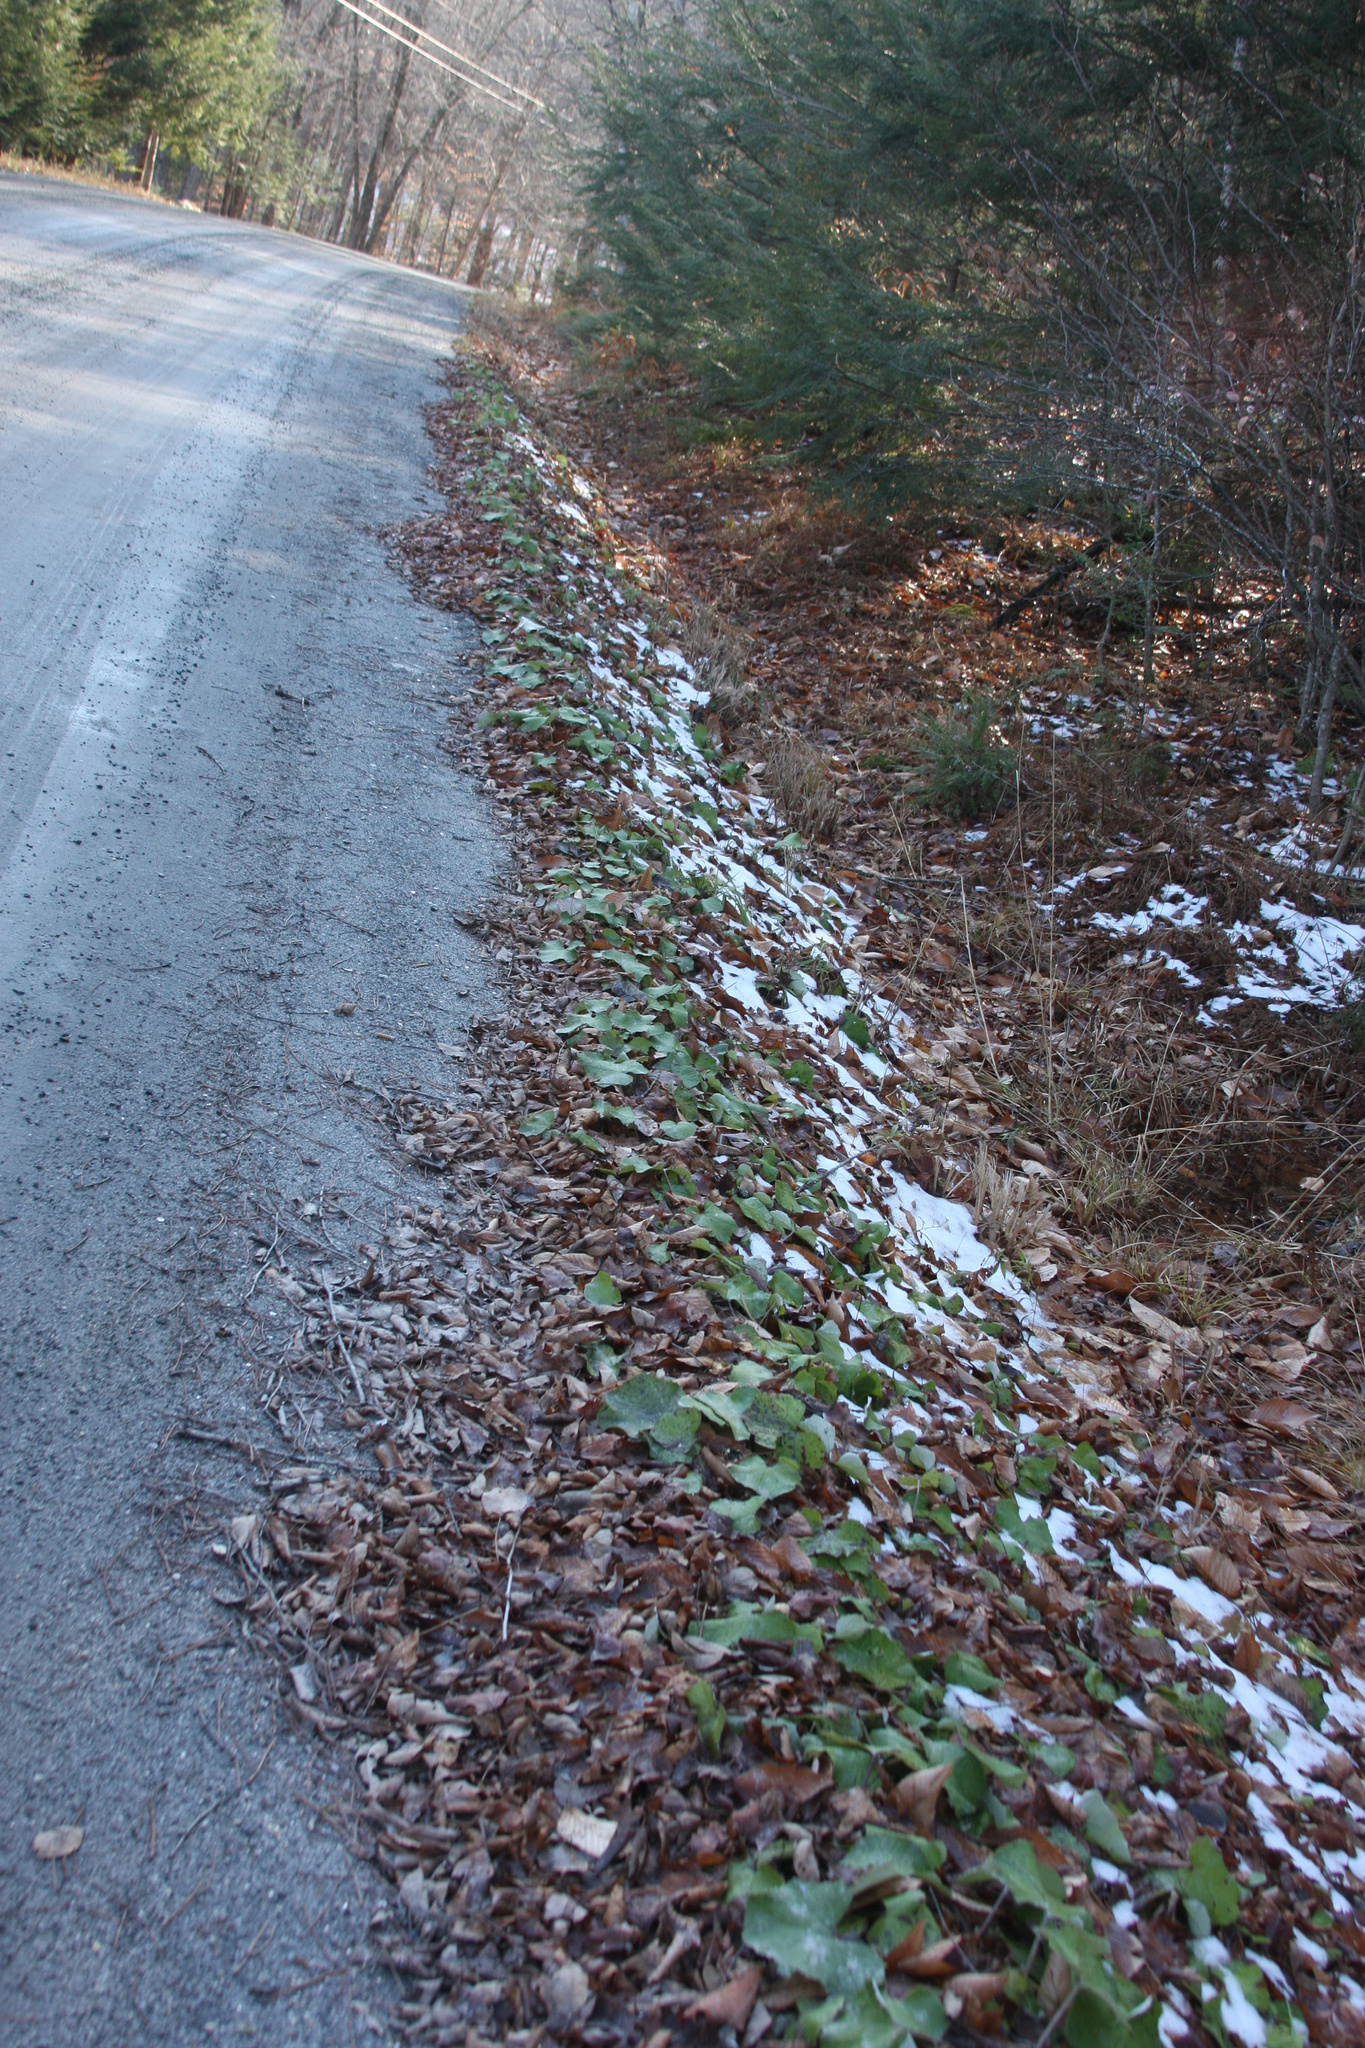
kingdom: Plantae
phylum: Tracheophyta
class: Magnoliopsida
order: Asterales
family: Asteraceae
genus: Tussilago
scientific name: Tussilago farfara
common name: Coltsfoot
